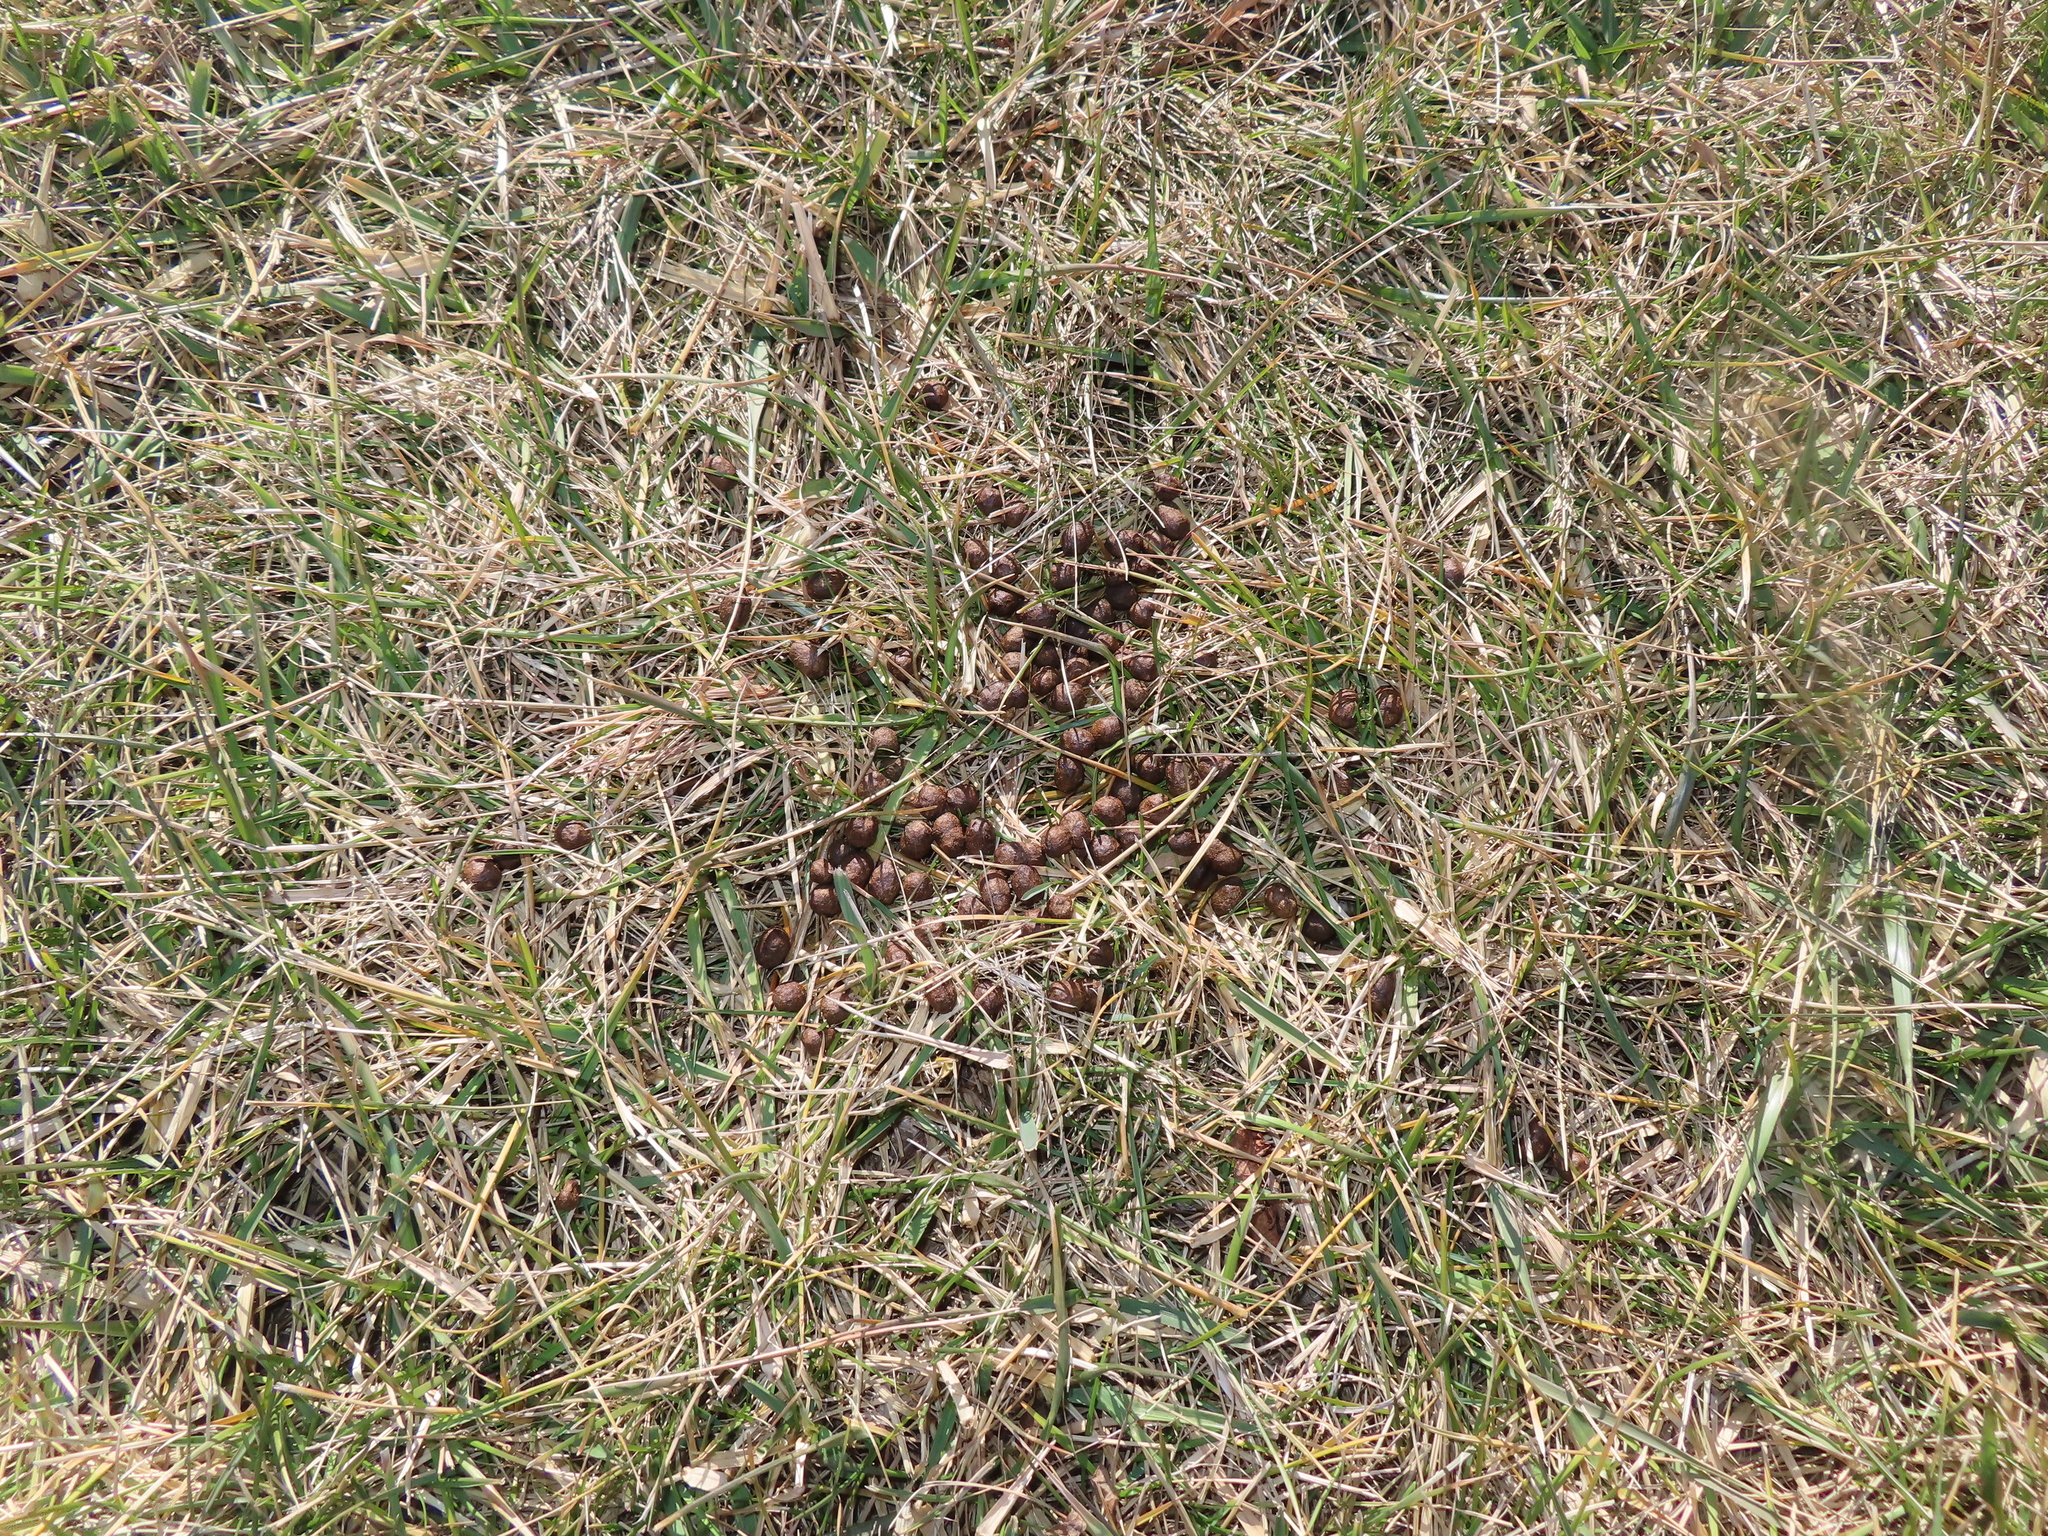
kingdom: Animalia
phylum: Chordata
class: Mammalia
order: Artiodactyla
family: Cervidae
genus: Odocoileus
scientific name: Odocoileus virginianus
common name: White-tailed deer
